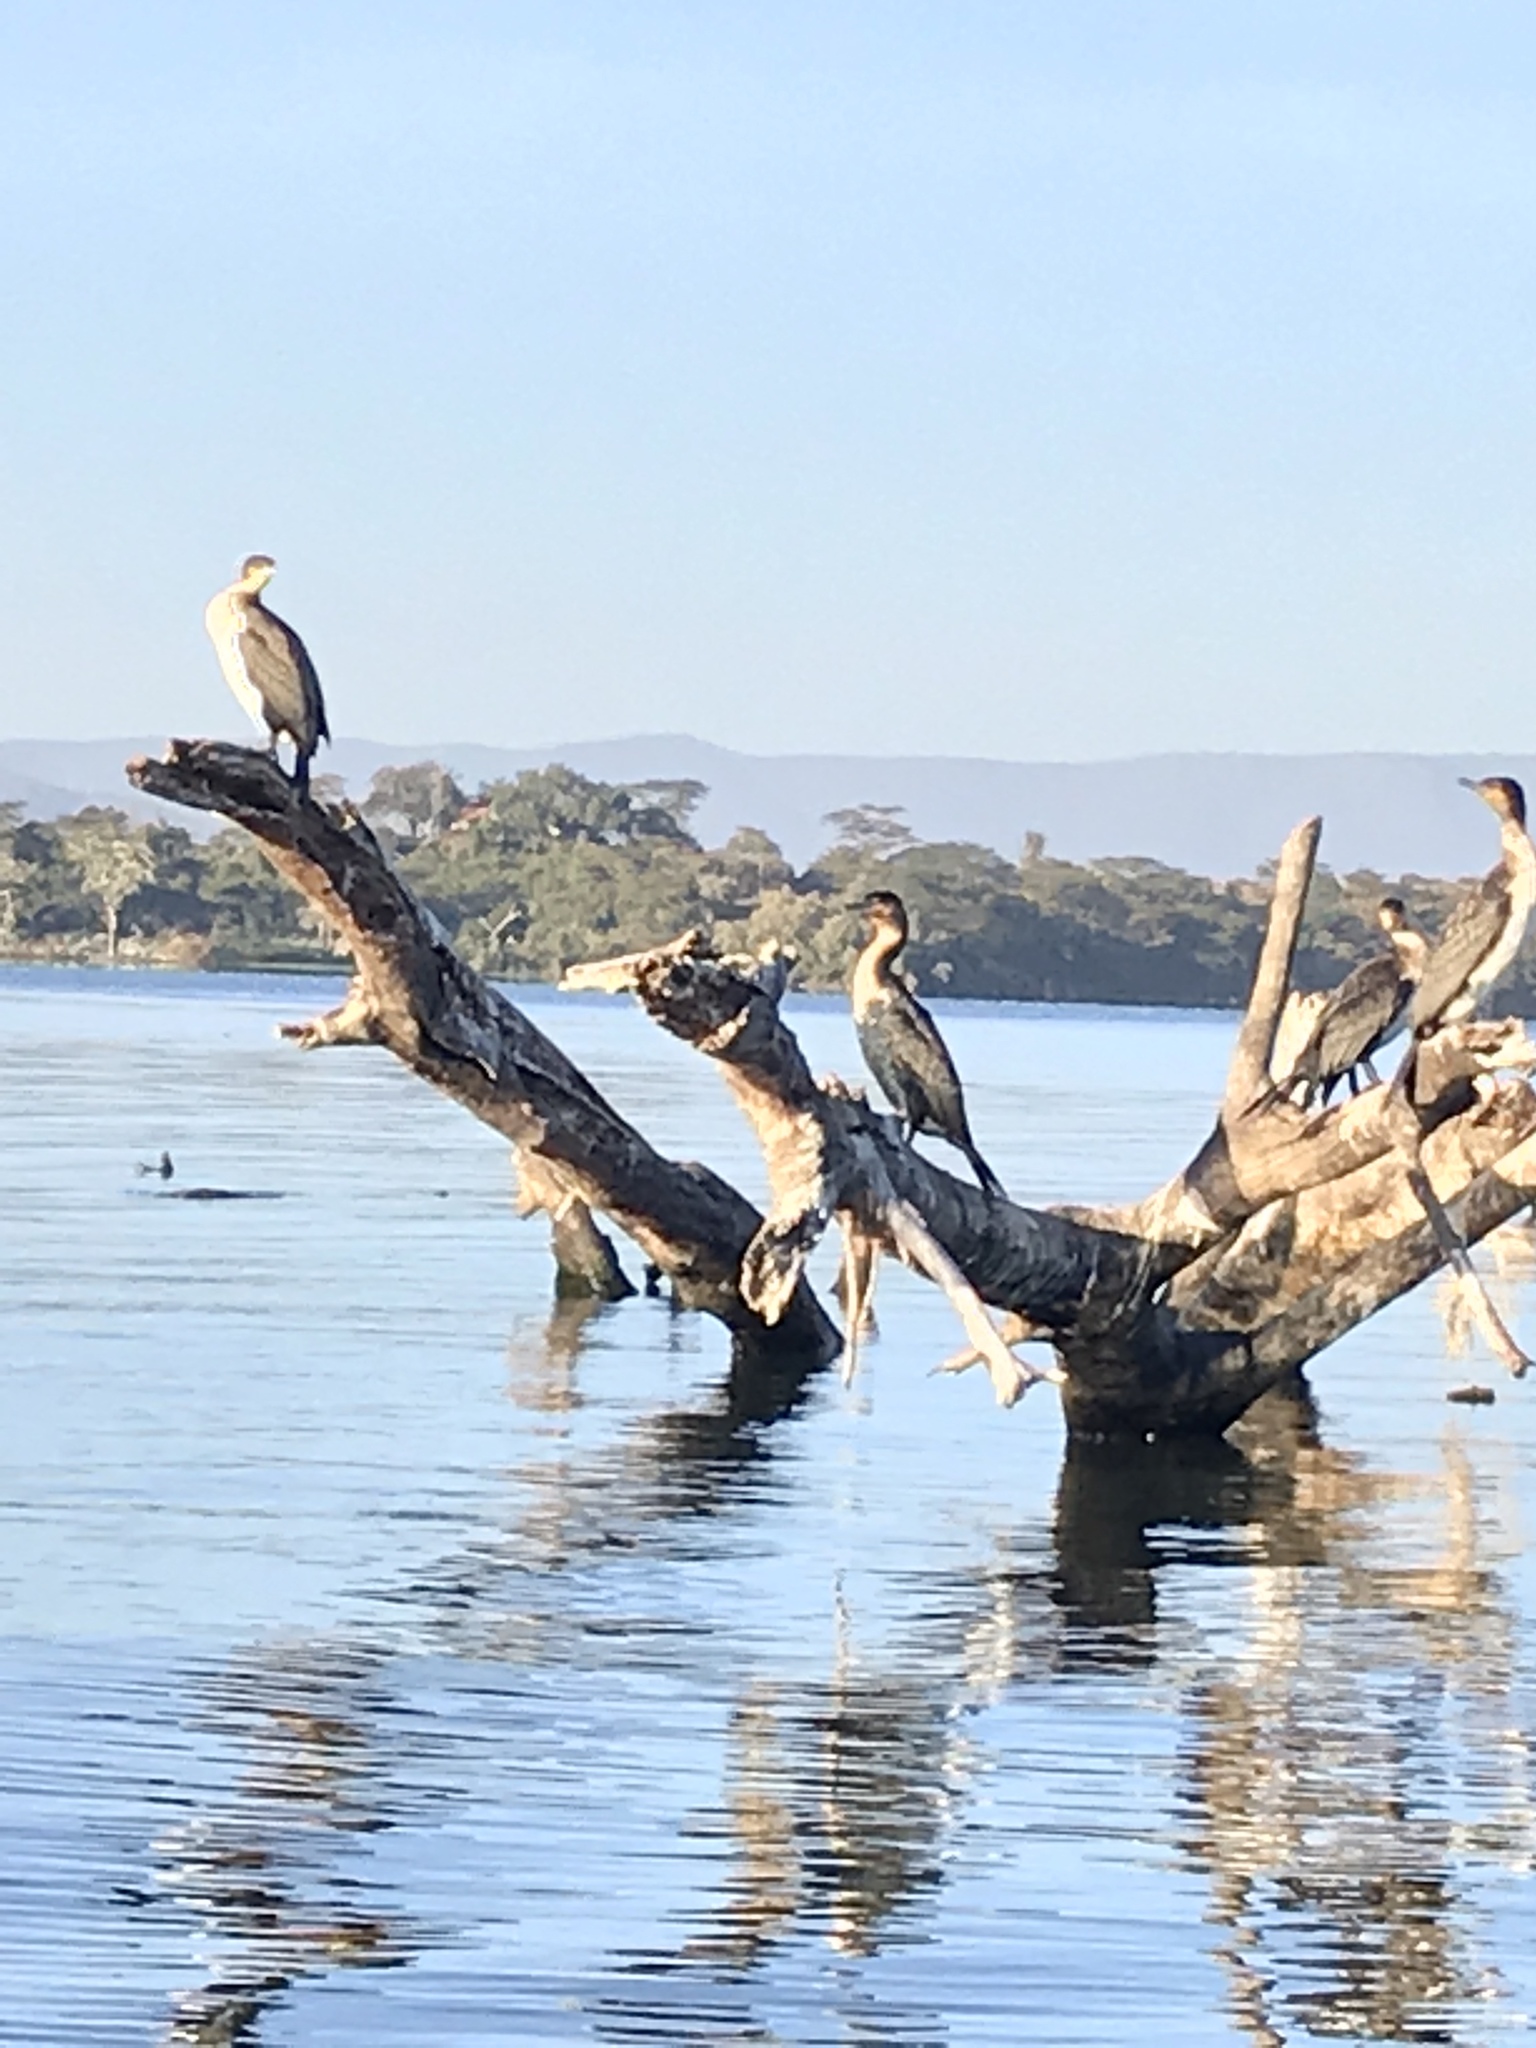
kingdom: Animalia
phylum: Chordata
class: Aves
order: Suliformes
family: Phalacrocoracidae
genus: Phalacrocorax
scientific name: Phalacrocorax carbo
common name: Great cormorant
